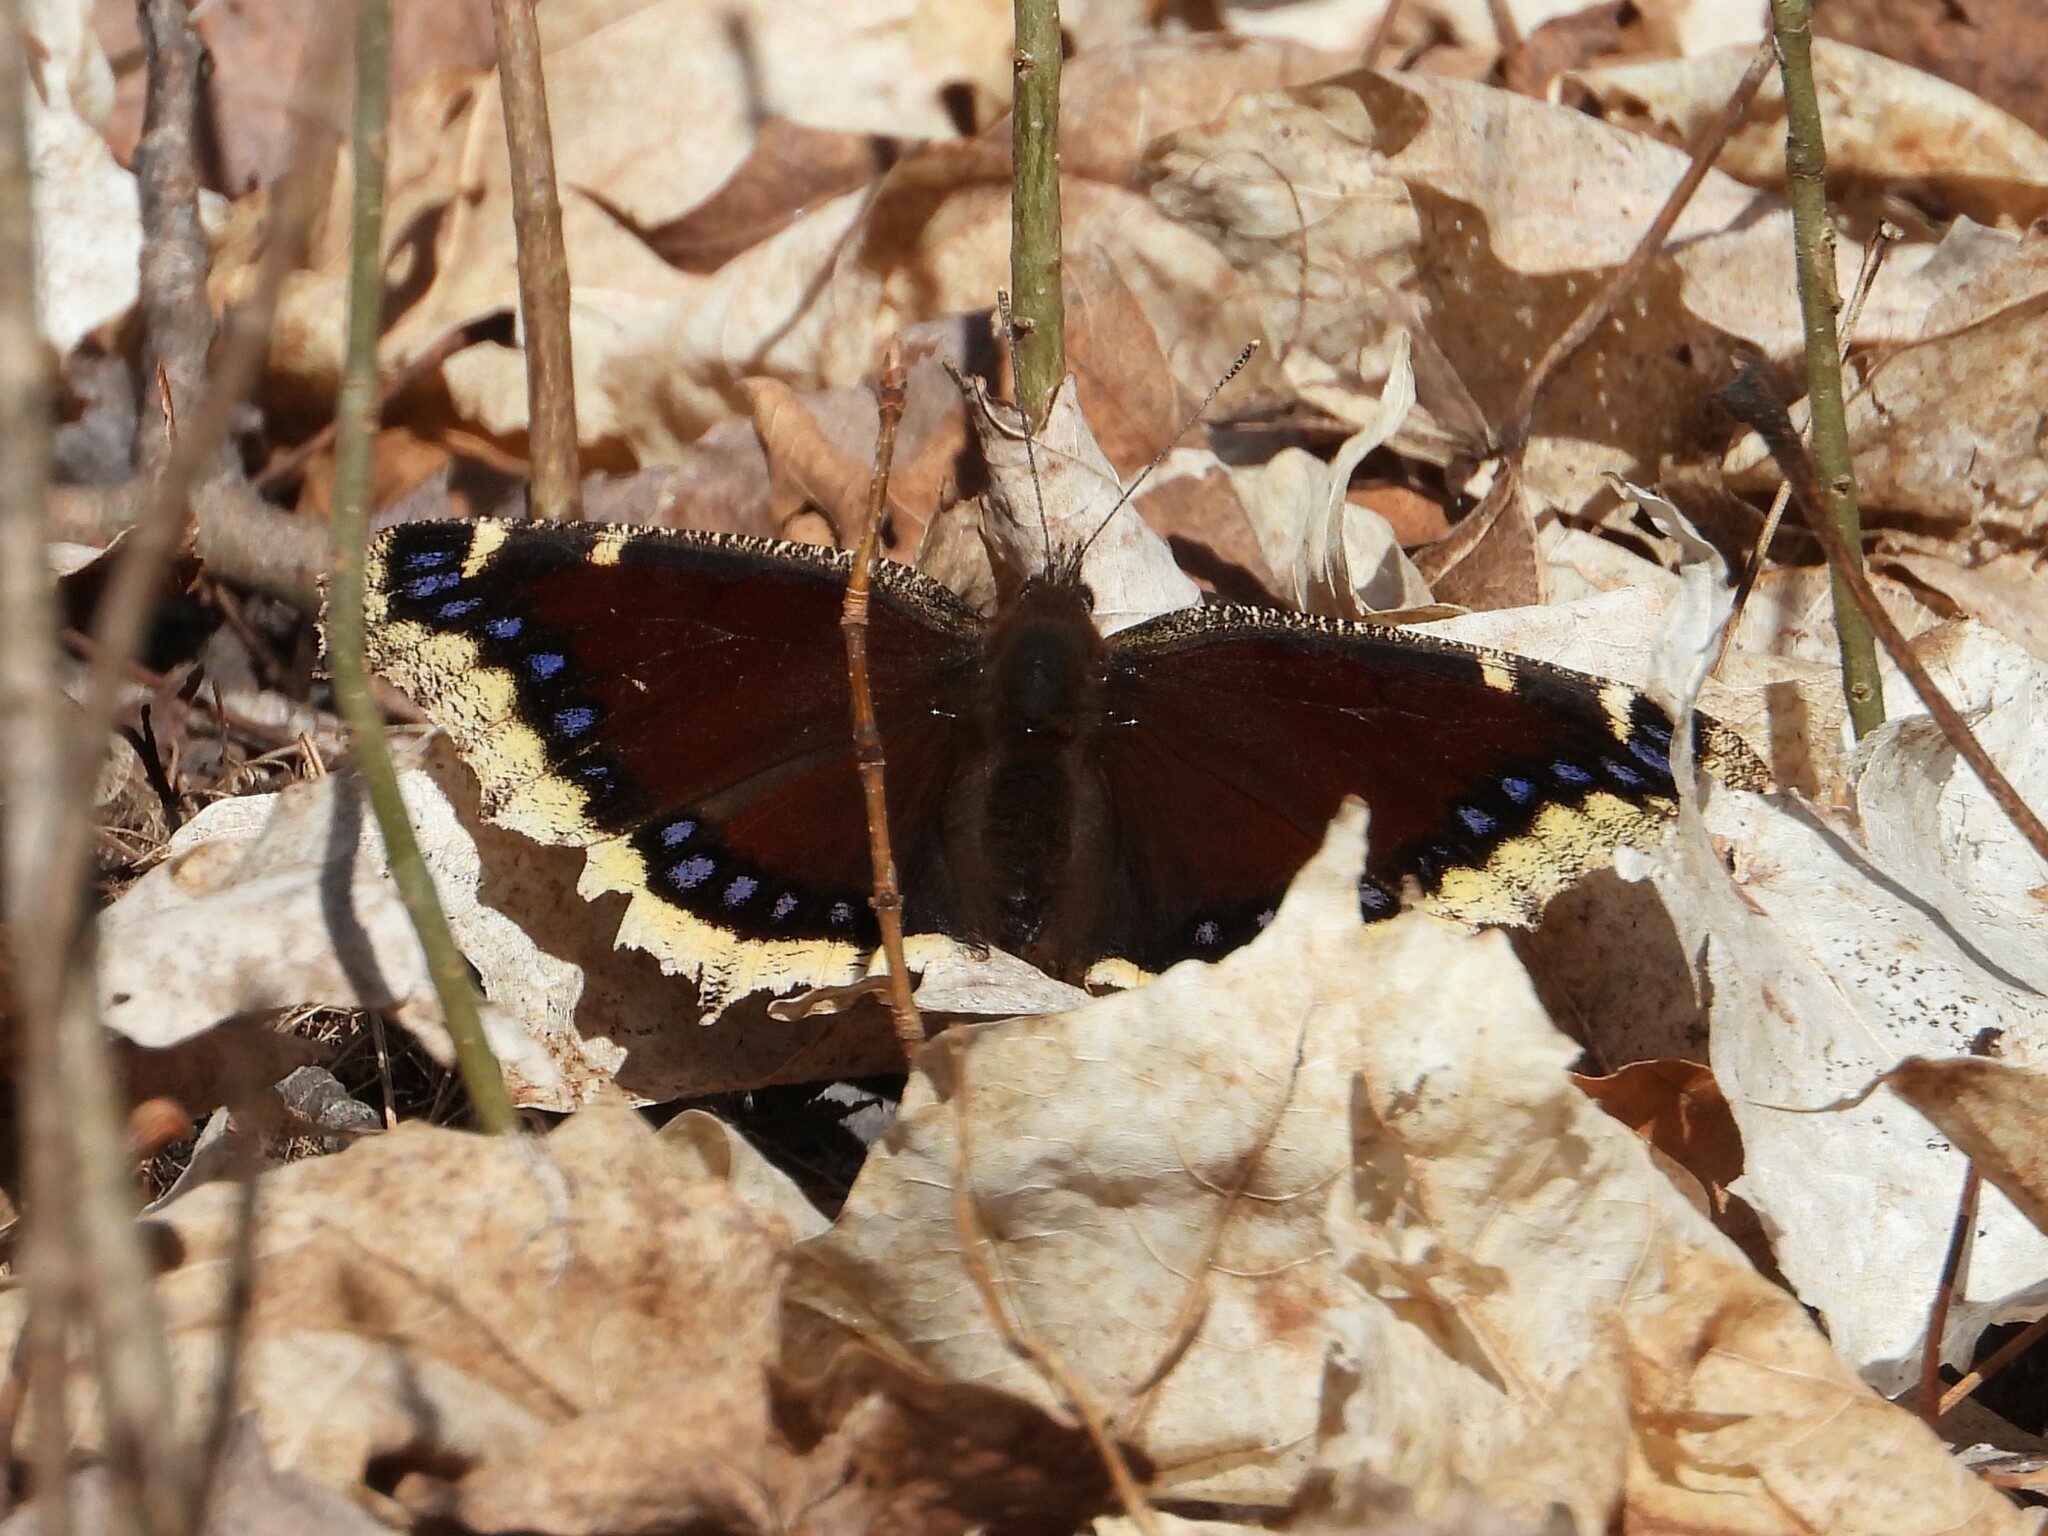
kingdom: Animalia
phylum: Arthropoda
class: Insecta
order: Lepidoptera
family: Nymphalidae
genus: Nymphalis
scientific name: Nymphalis antiopa
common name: Camberwell beauty
